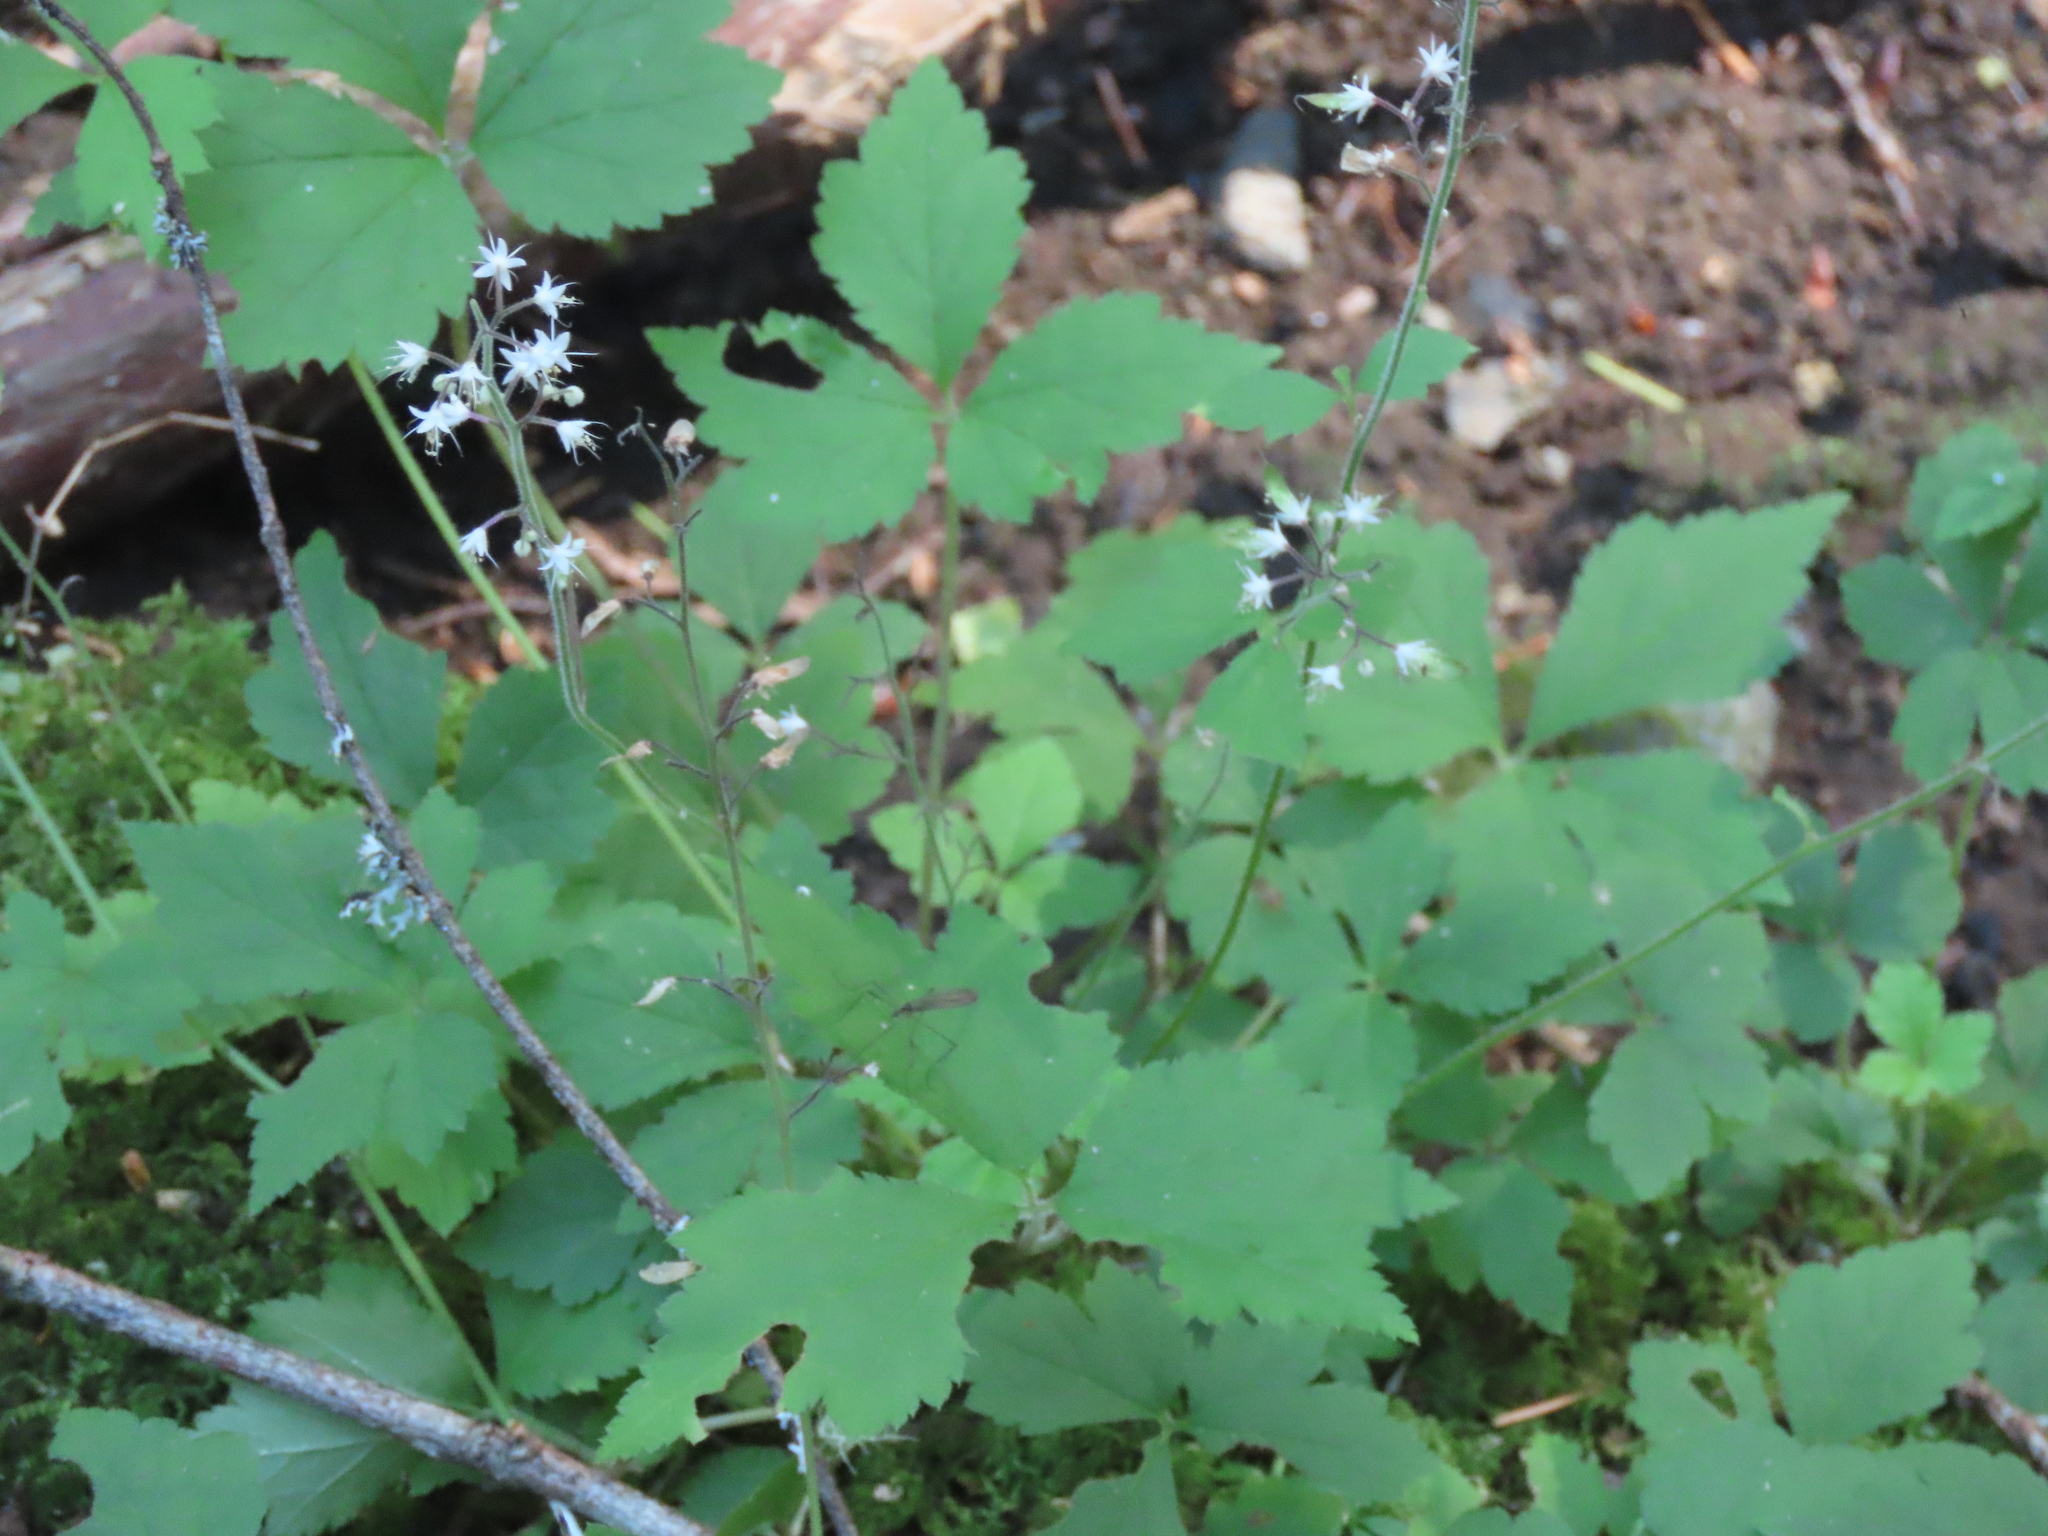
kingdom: Plantae
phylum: Tracheophyta
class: Magnoliopsida
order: Saxifragales
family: Saxifragaceae
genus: Tiarella
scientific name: Tiarella trifoliata
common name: Sugar-scoop
